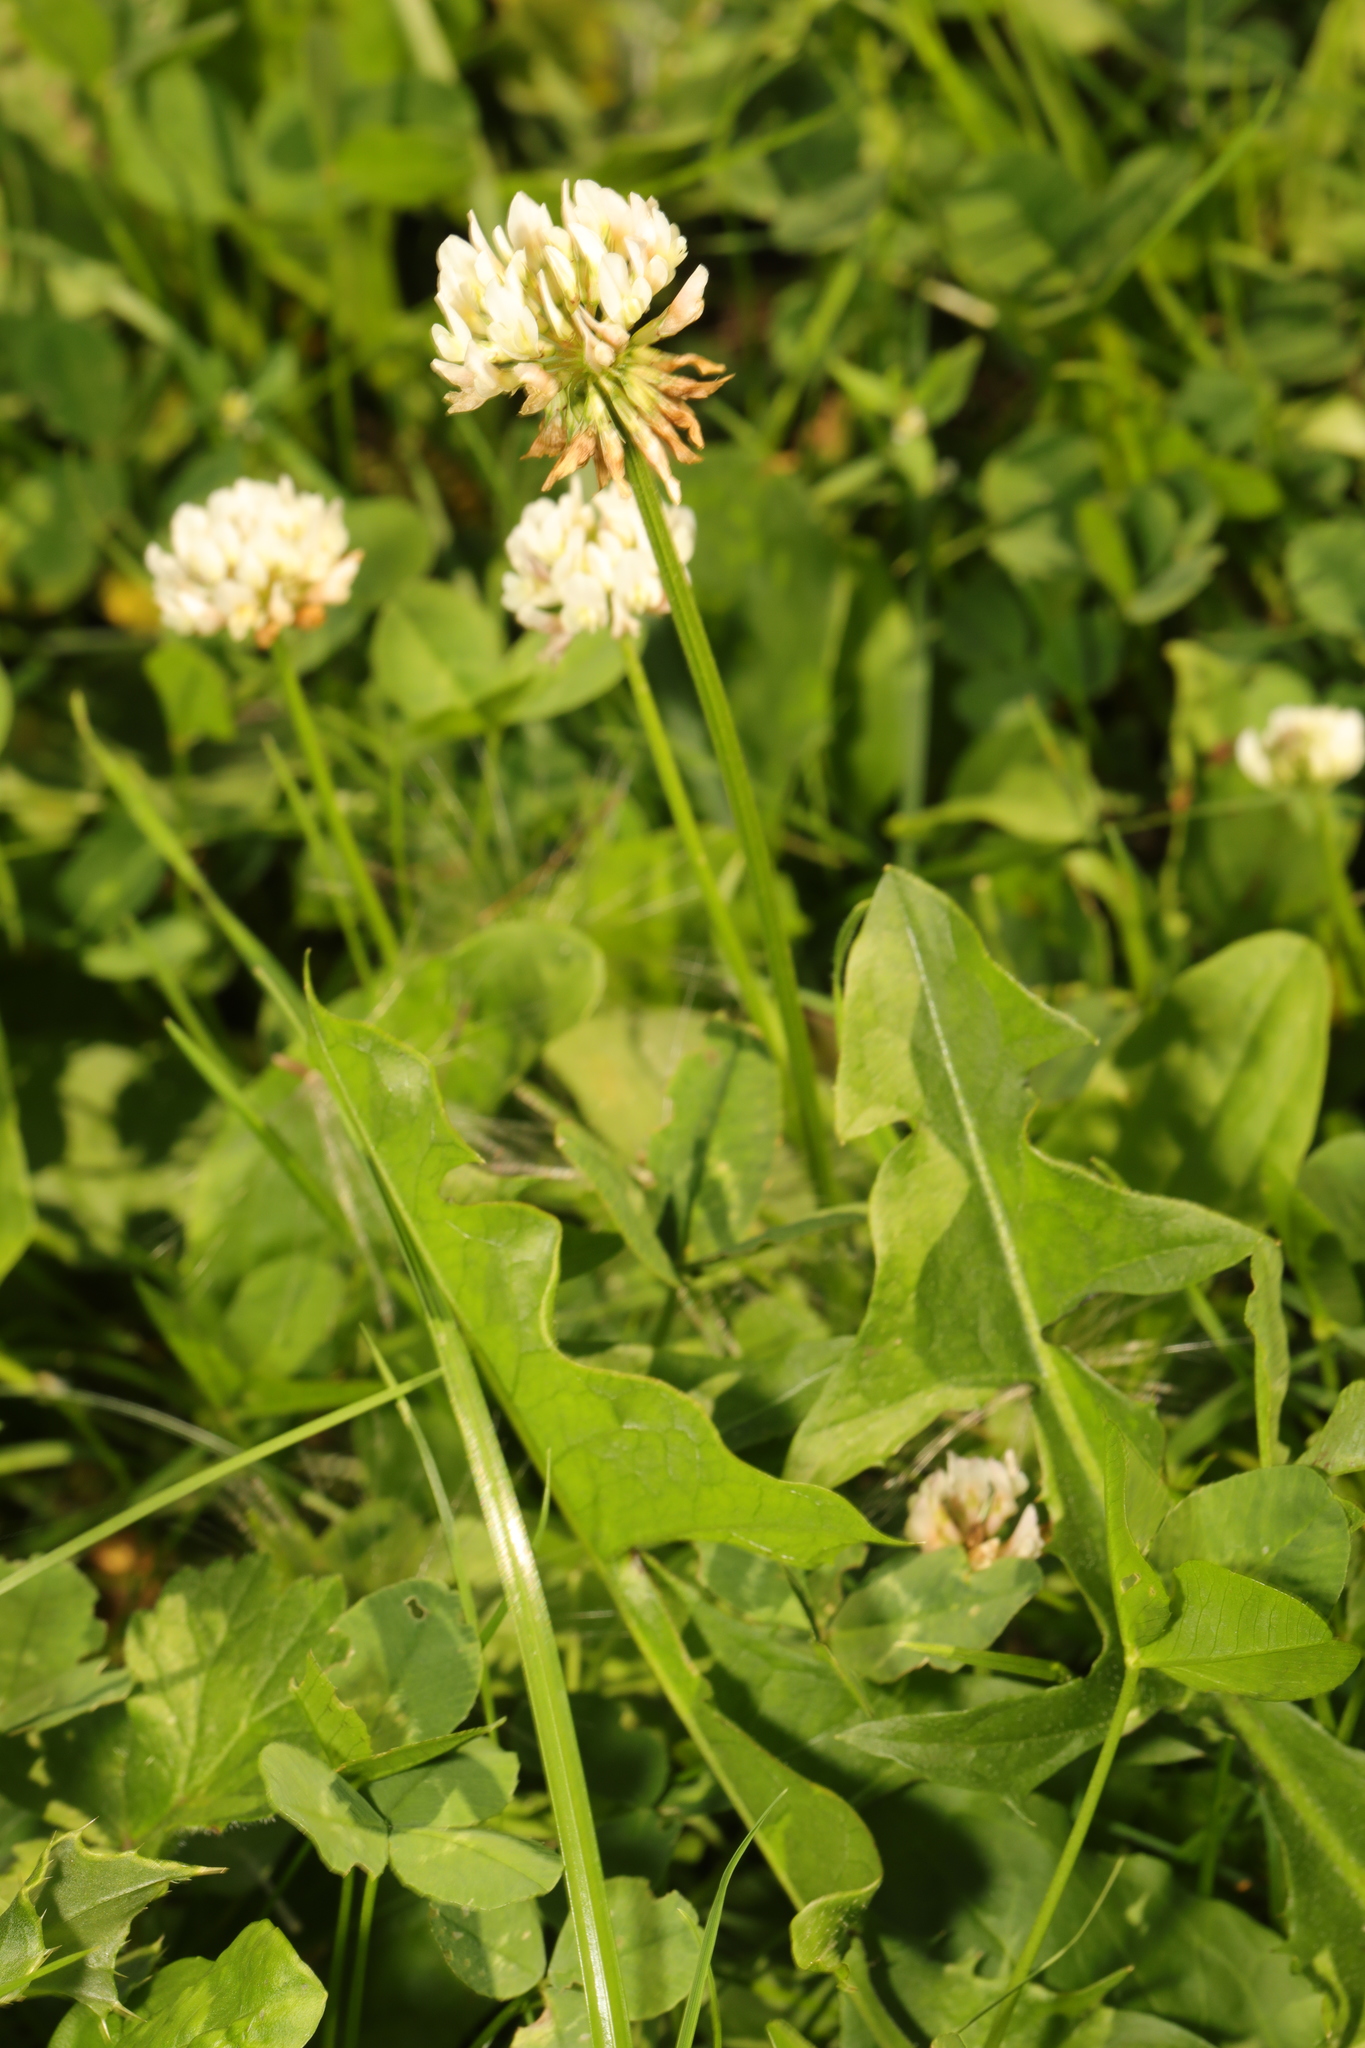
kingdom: Plantae
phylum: Tracheophyta
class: Magnoliopsida
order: Fabales
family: Fabaceae
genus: Trifolium
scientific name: Trifolium repens
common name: White clover
